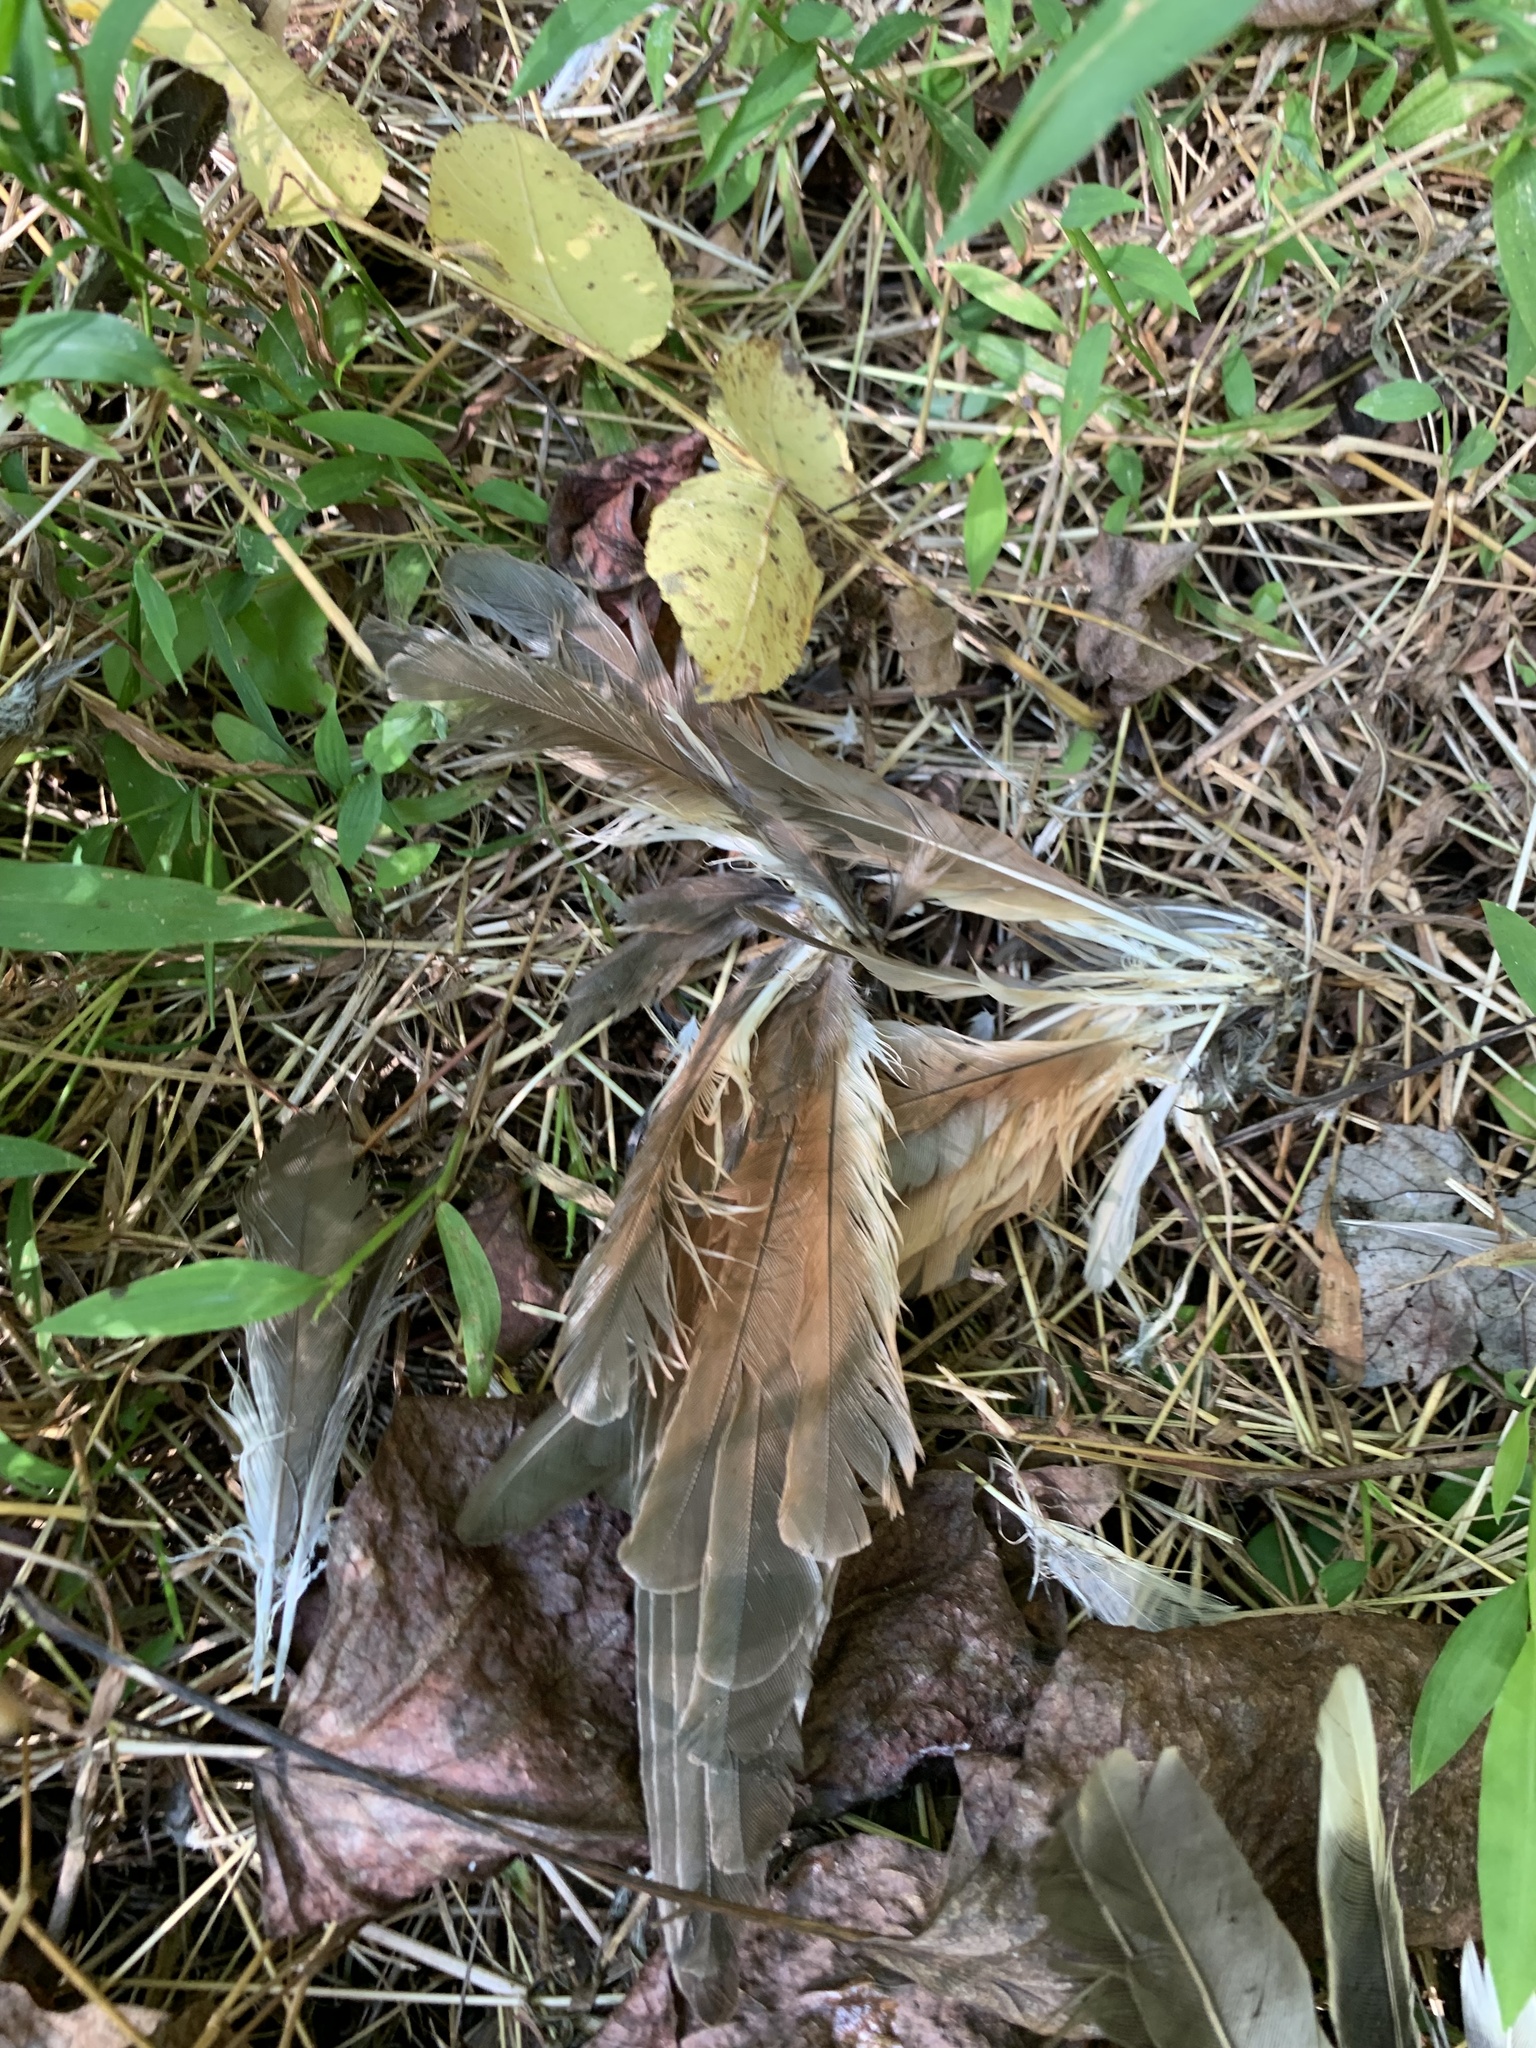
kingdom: Animalia
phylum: Chordata
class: Aves
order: Cuculiformes
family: Cuculidae
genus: Coccyzus
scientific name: Coccyzus americanus
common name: Yellow-billed cuckoo
